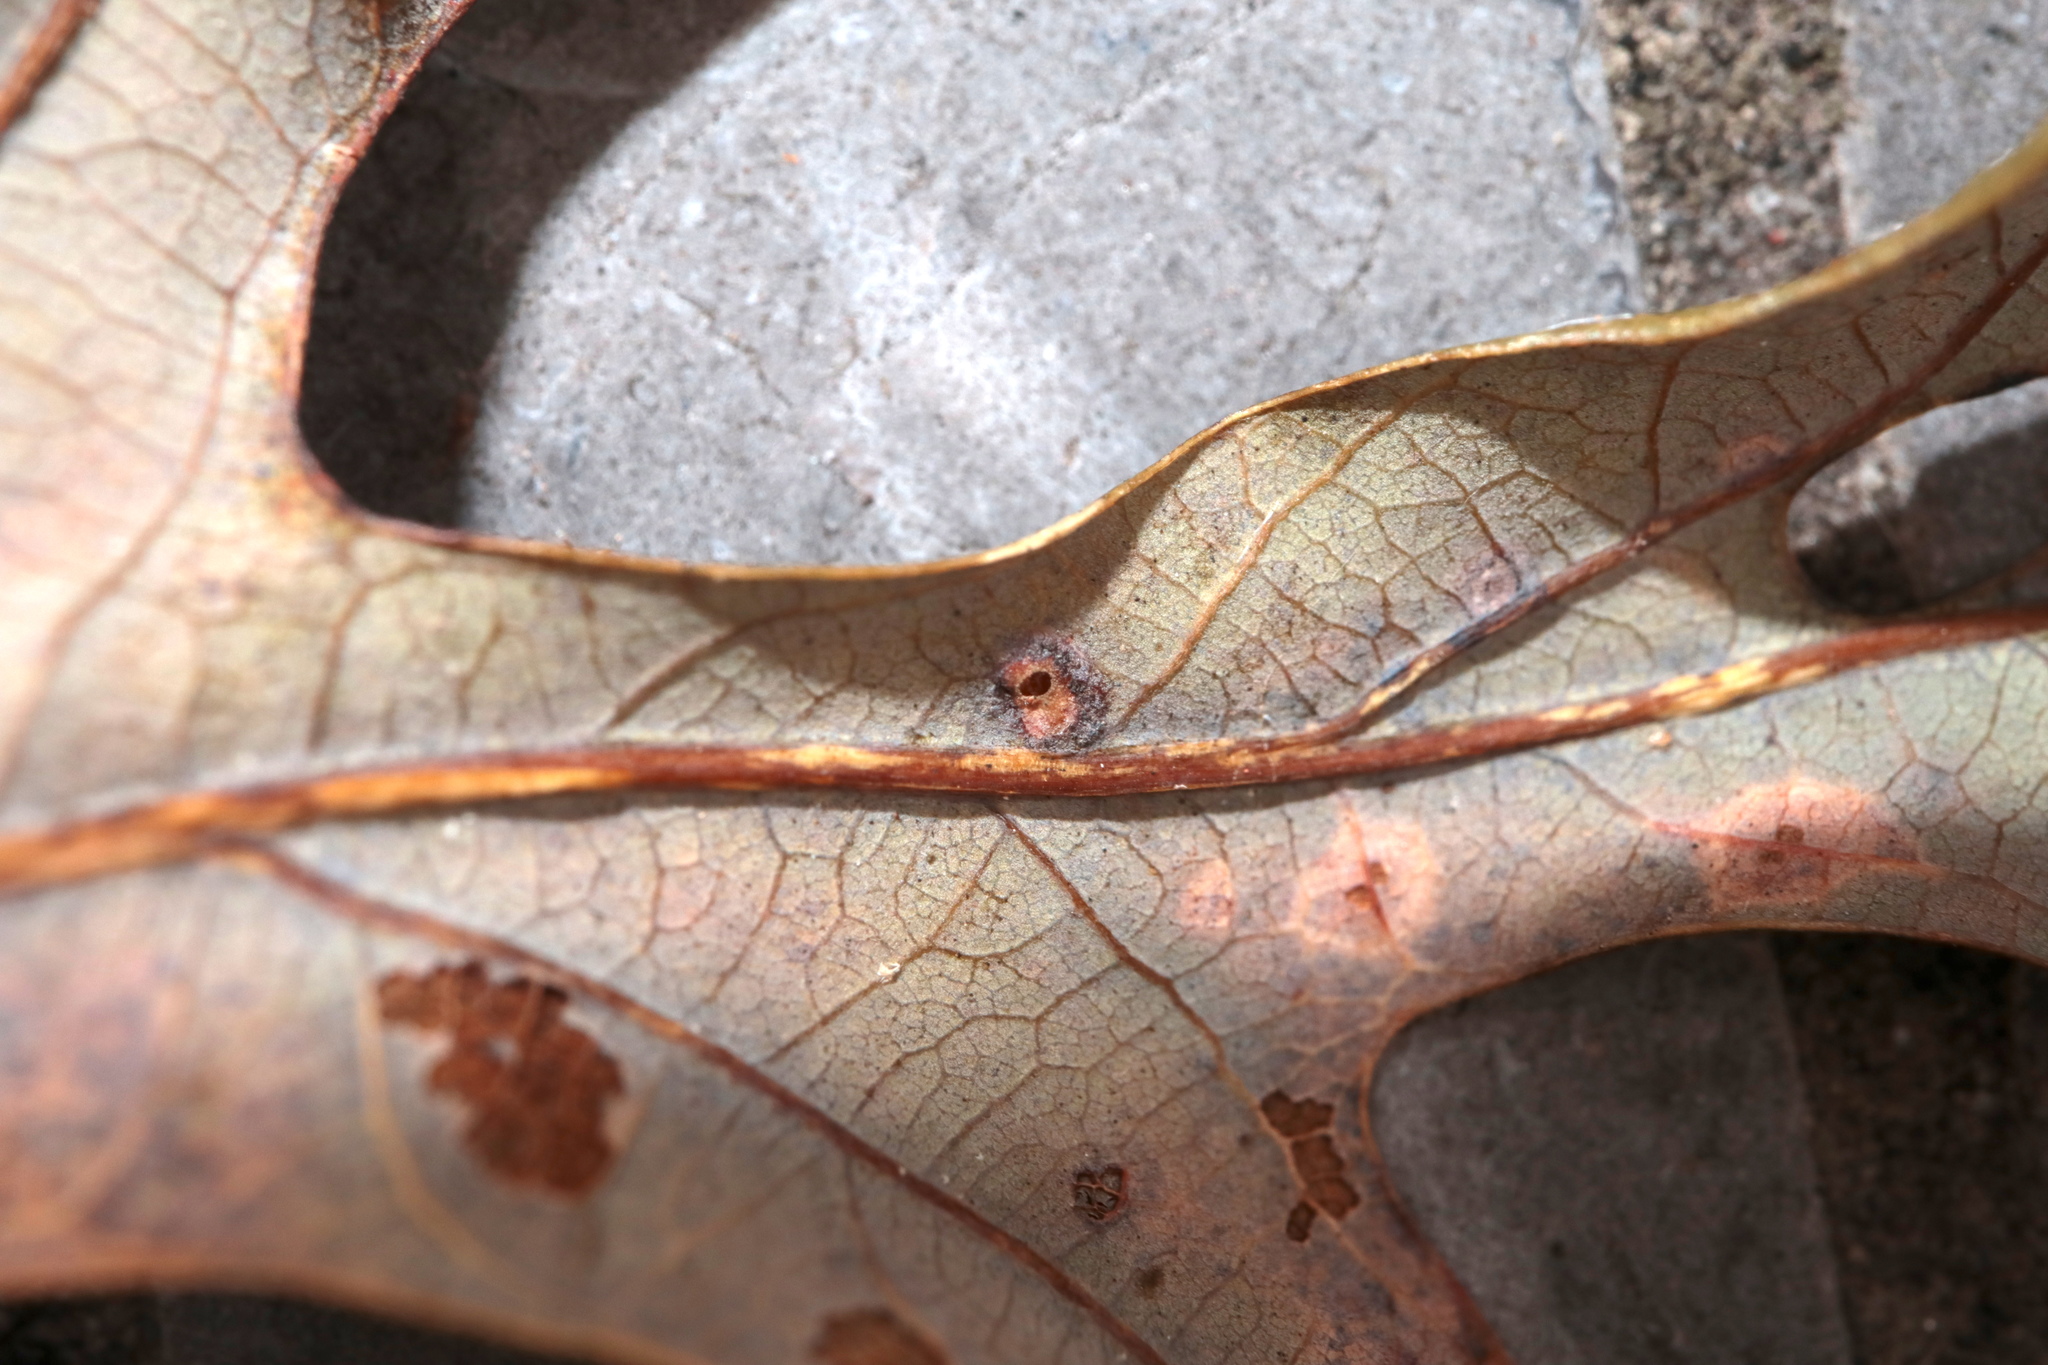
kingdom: Animalia
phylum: Arthropoda
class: Insecta
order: Hymenoptera
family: Cynipidae
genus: Neuroterus
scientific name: Neuroterus quercusverrucarum
